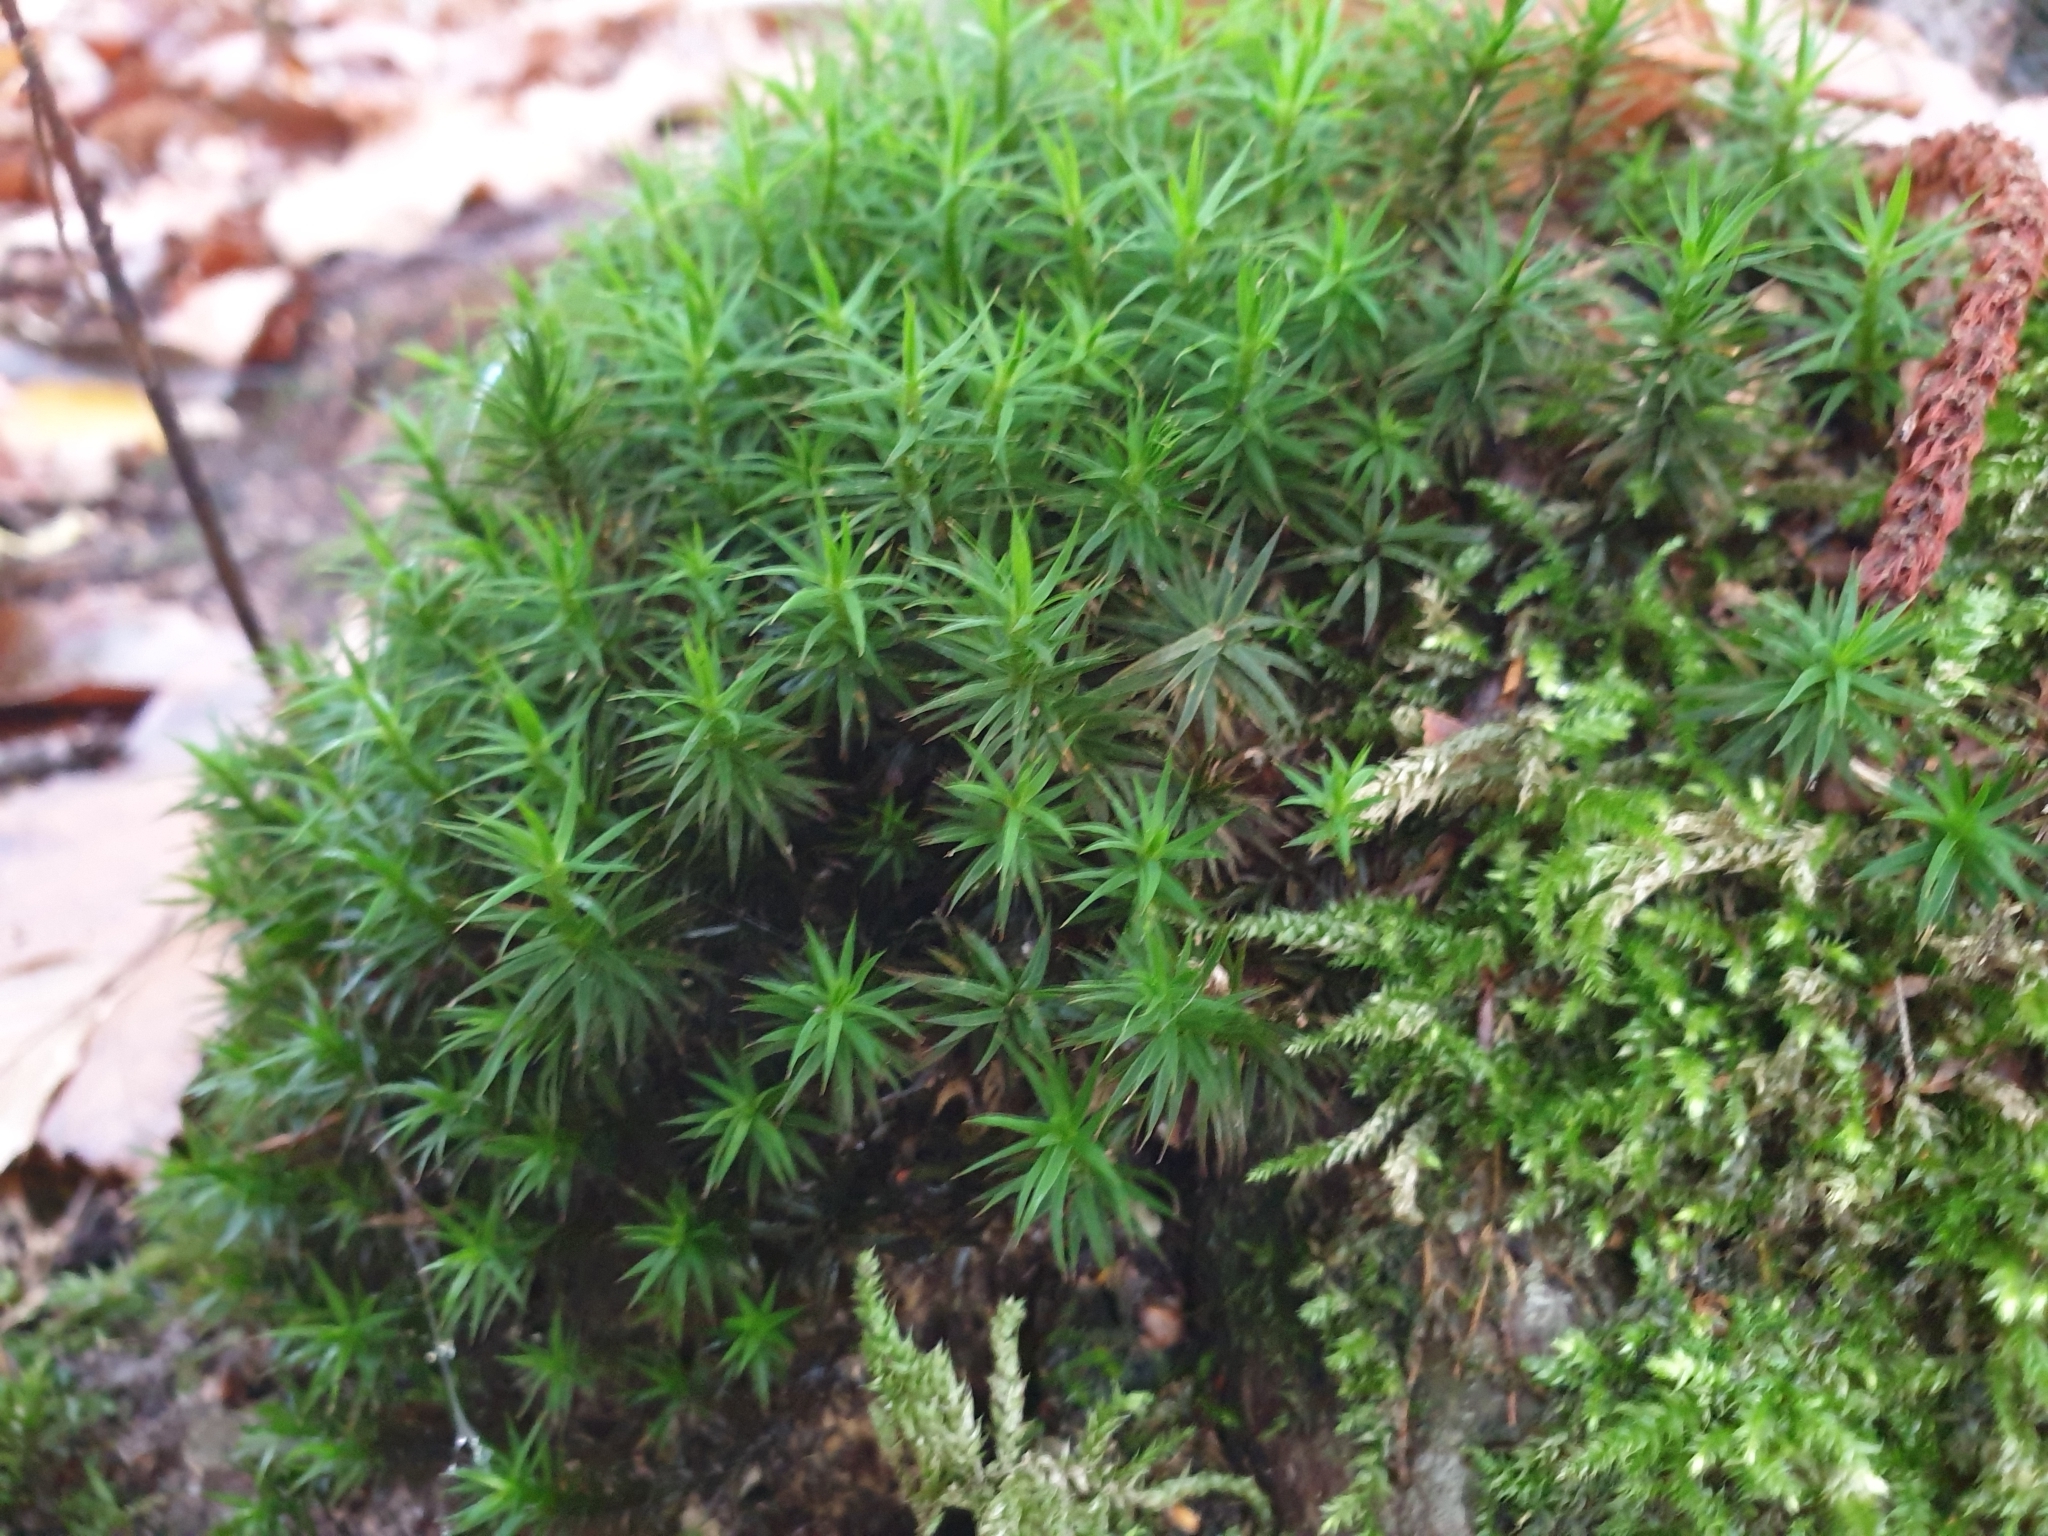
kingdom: Plantae
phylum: Bryophyta
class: Polytrichopsida
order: Polytrichales
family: Polytrichaceae
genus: Polytrichum
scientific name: Polytrichum formosum
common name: Bank haircap moss
